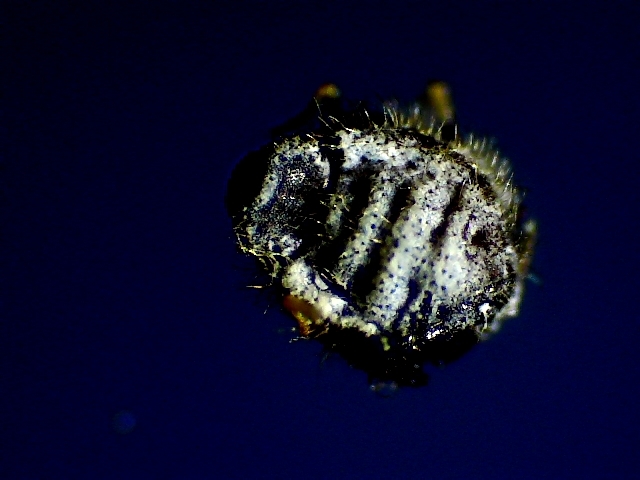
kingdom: Animalia
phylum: Arthropoda
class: Insecta
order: Hemiptera
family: Aphididae
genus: Euthoracaphis
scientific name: Euthoracaphis umbellulariae
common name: Aphid
